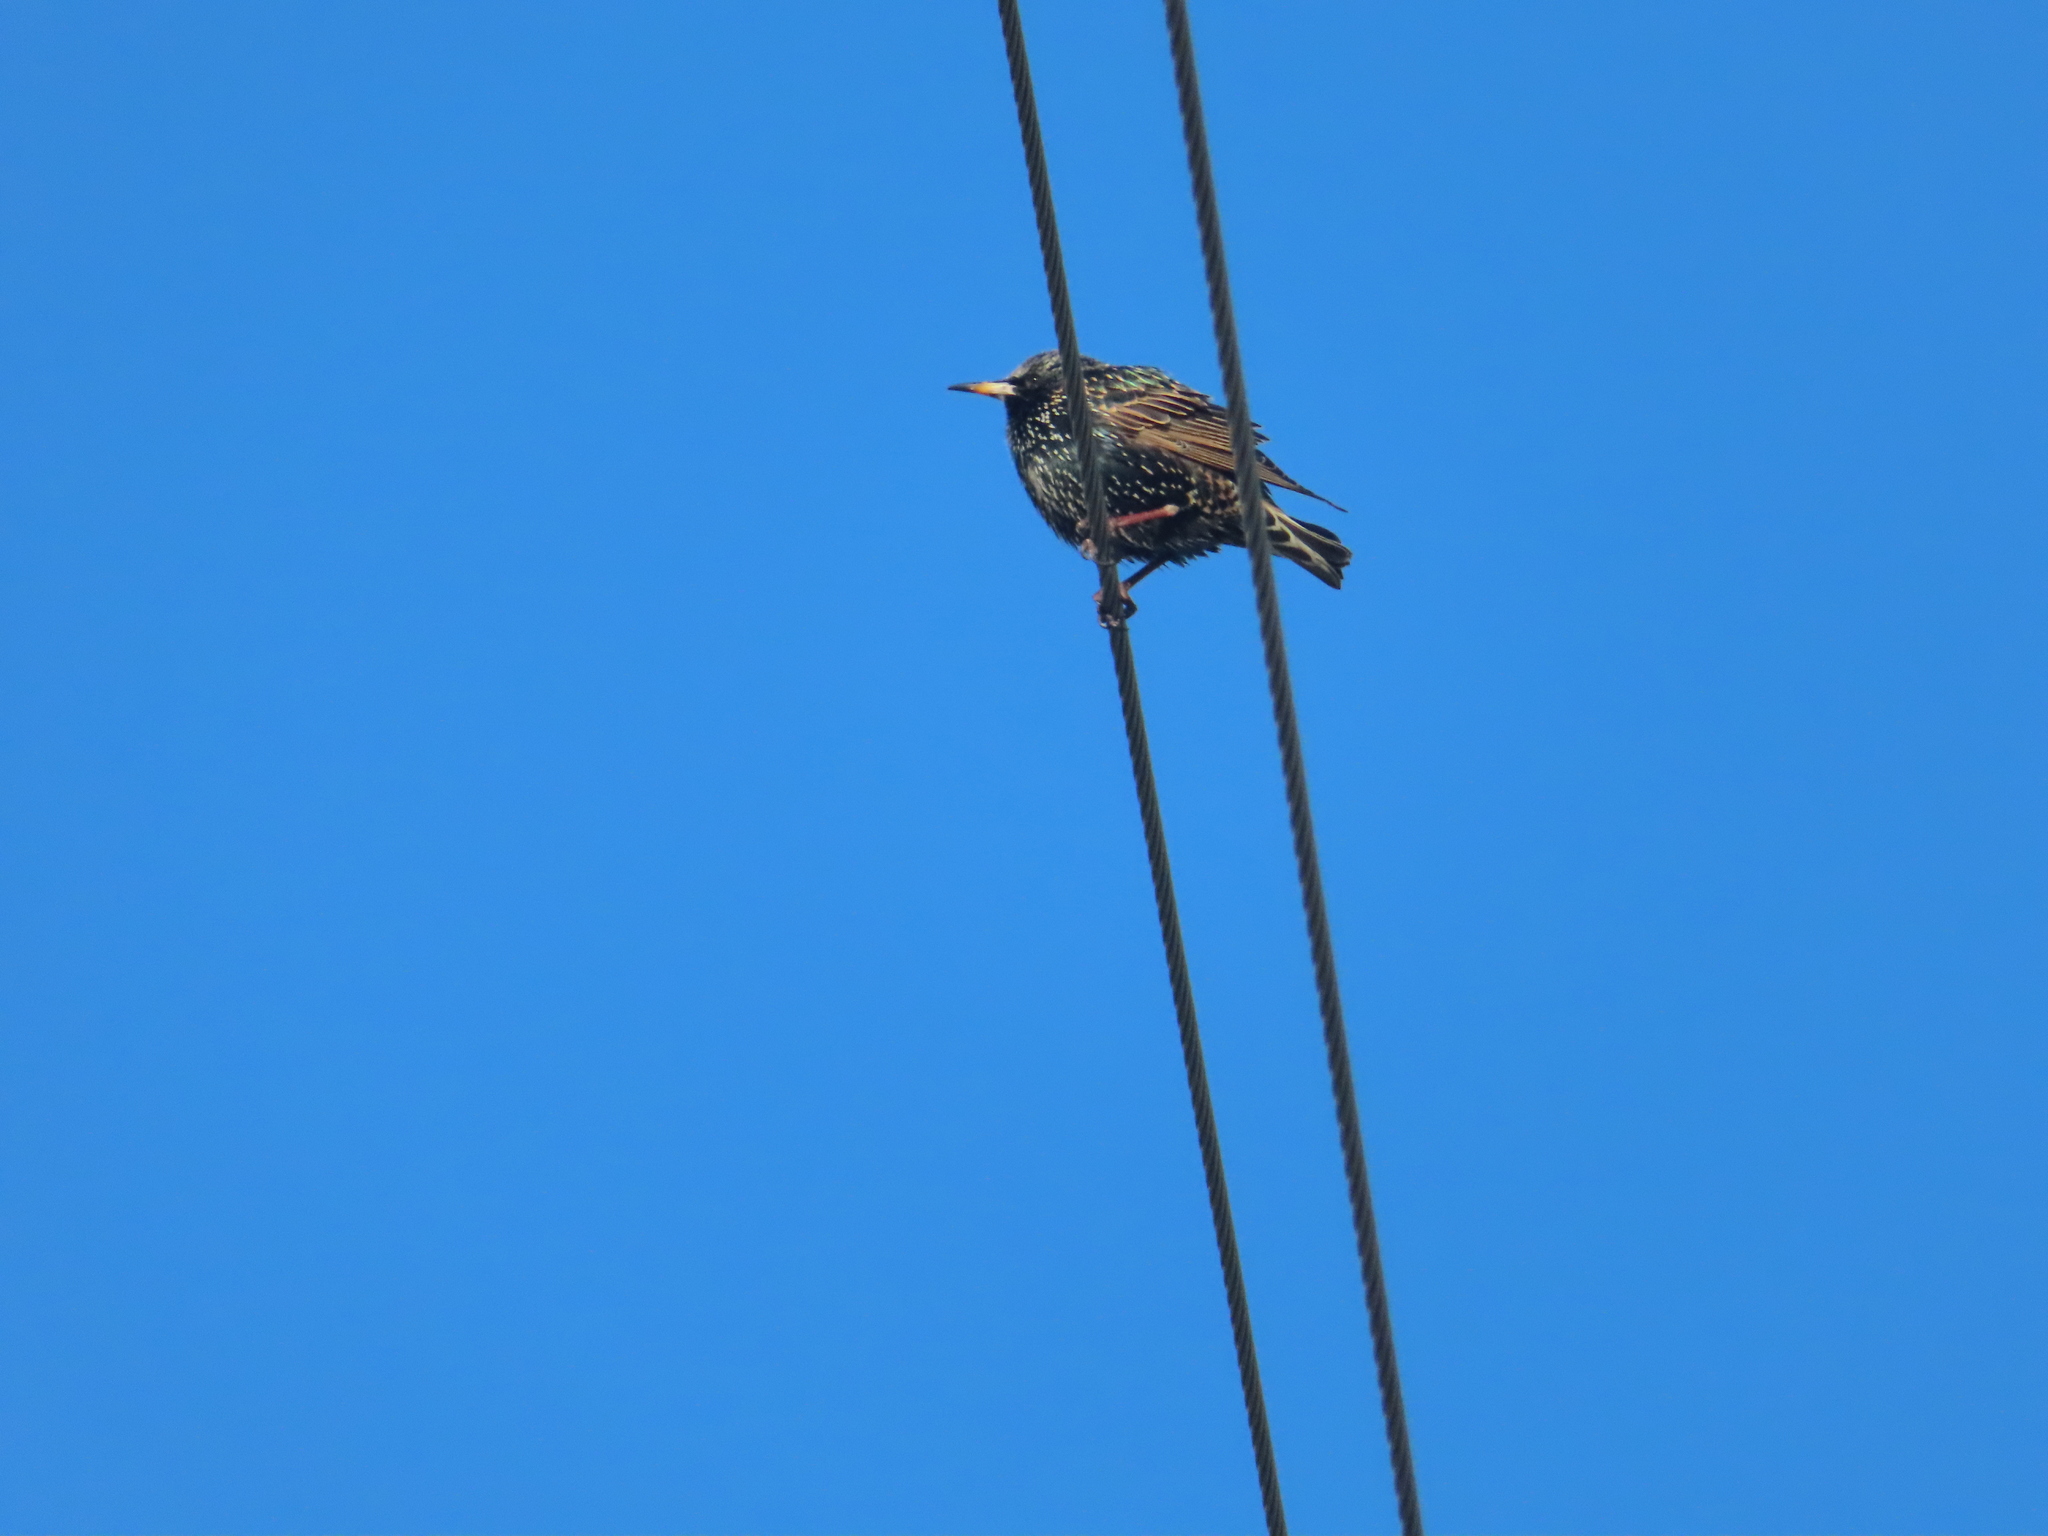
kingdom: Animalia
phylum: Chordata
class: Aves
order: Passeriformes
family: Sturnidae
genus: Sturnus
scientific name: Sturnus vulgaris
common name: Common starling
